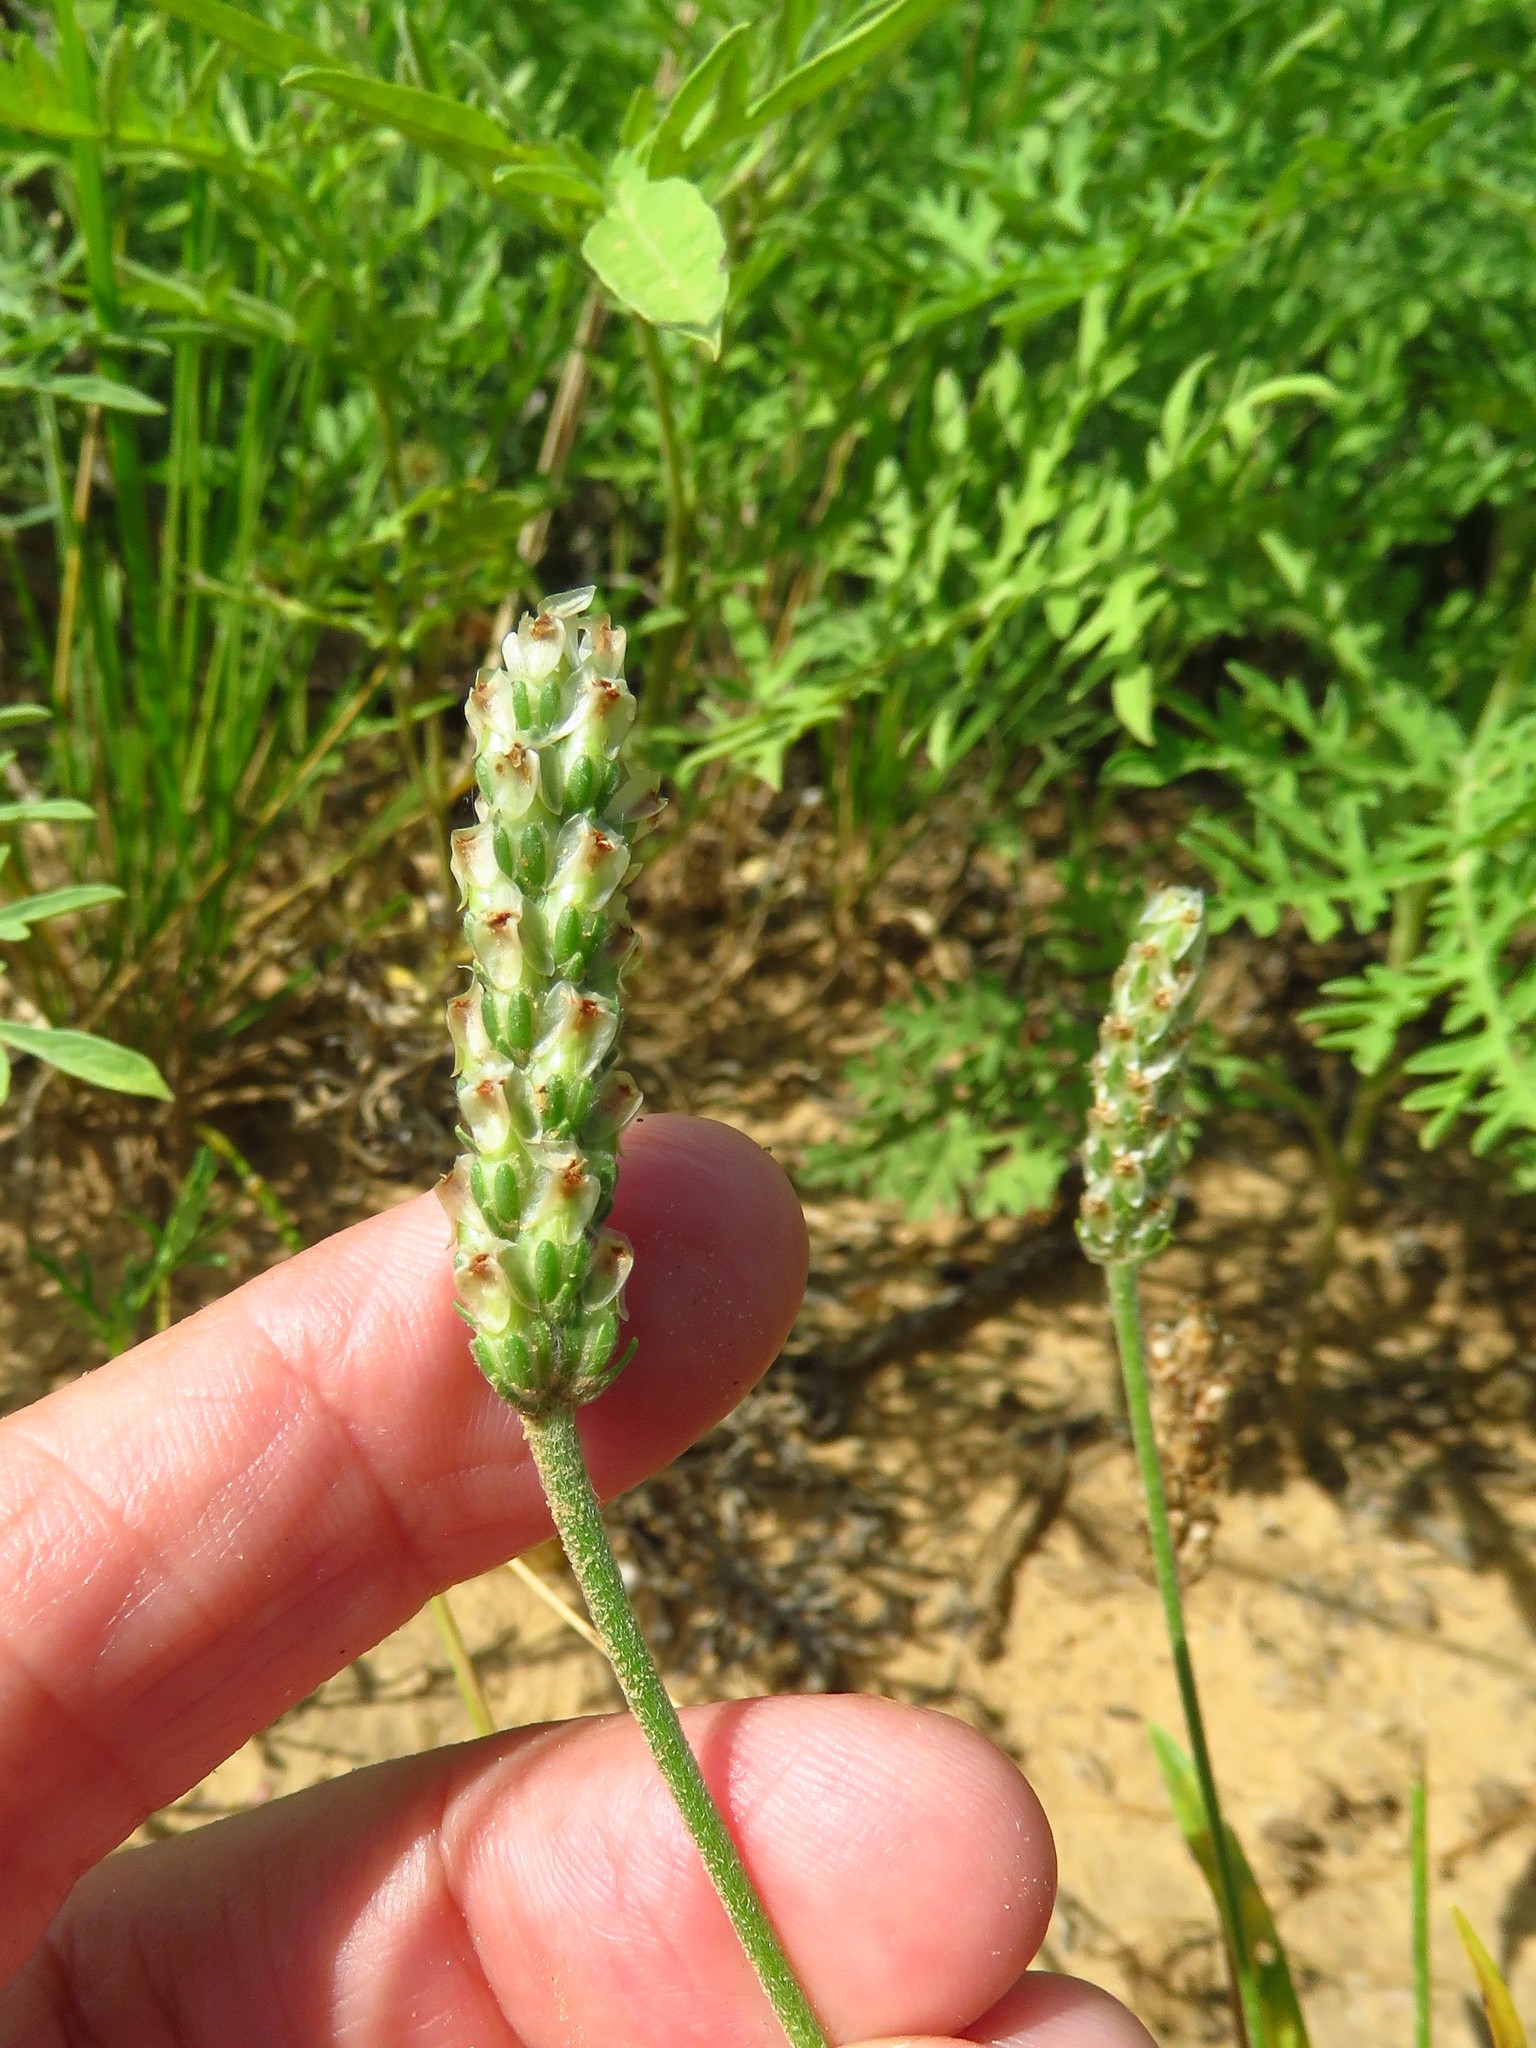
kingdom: Plantae
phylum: Tracheophyta
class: Magnoliopsida
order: Lamiales
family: Plantaginaceae
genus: Plantago
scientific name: Plantago wrightiana
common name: Wright's plantain
